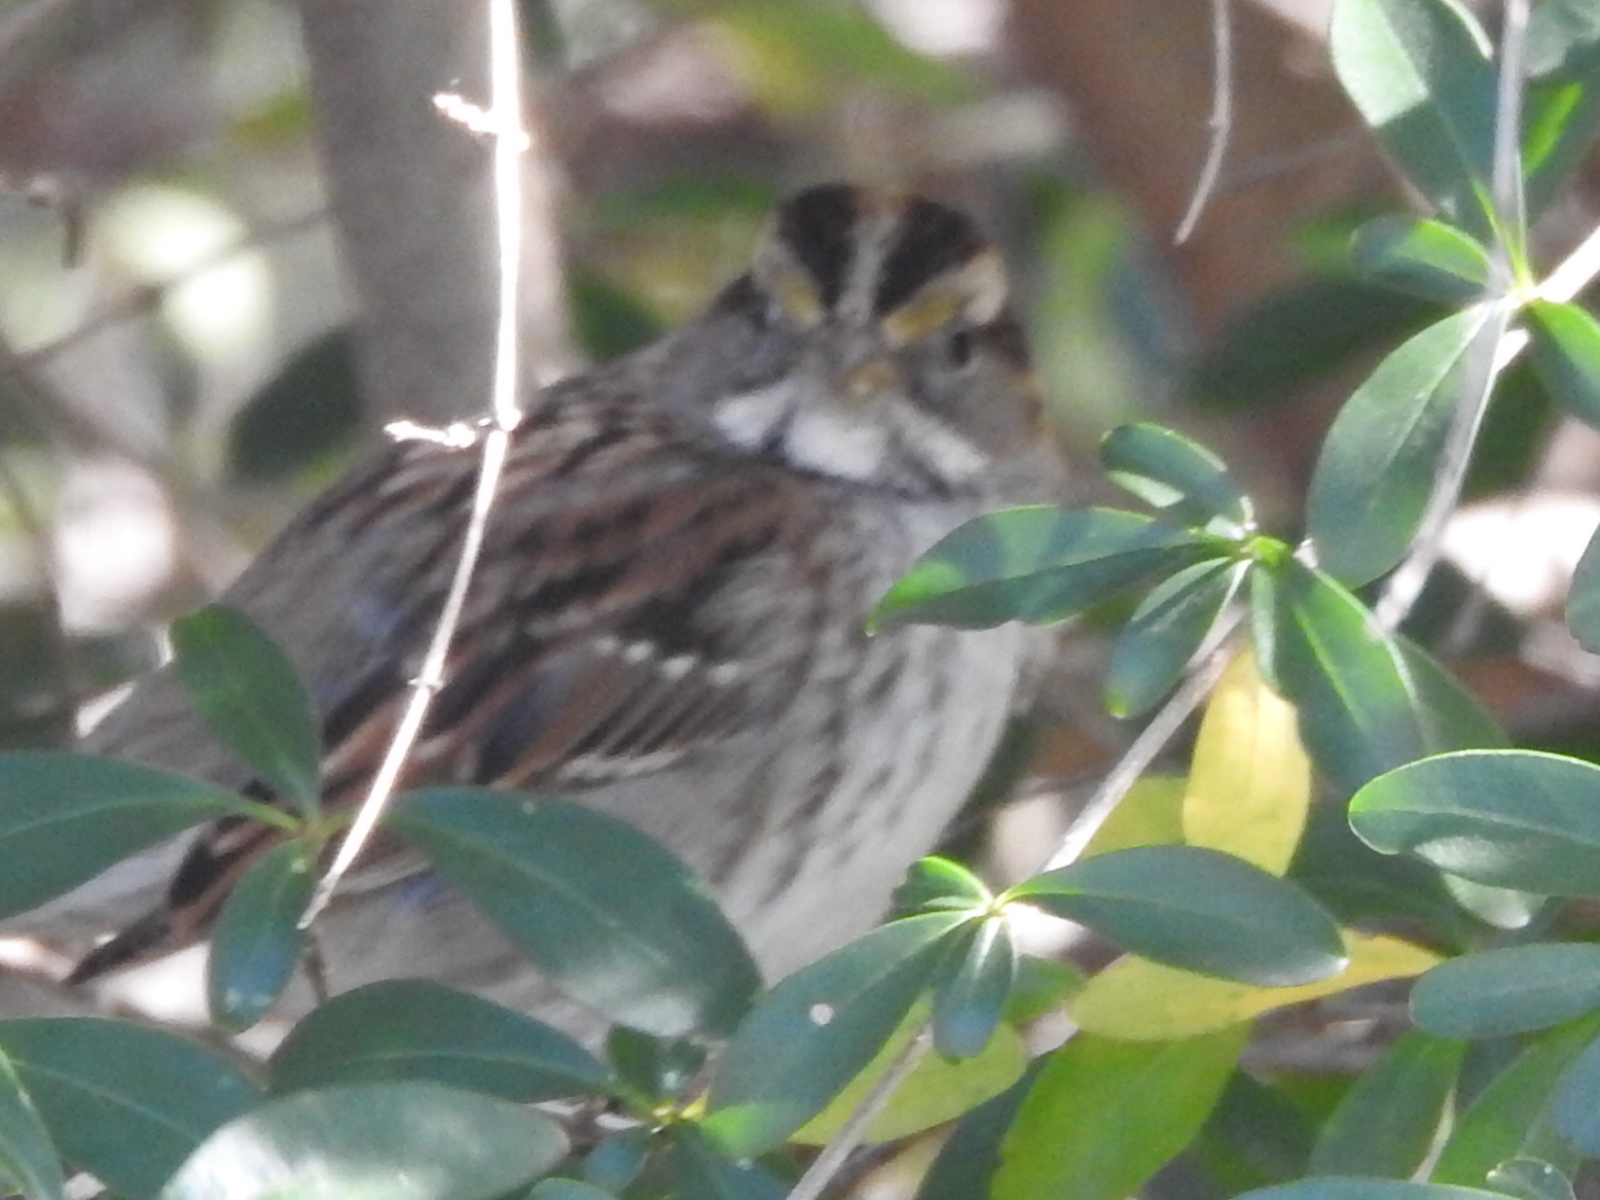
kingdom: Animalia
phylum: Chordata
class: Aves
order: Passeriformes
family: Passerellidae
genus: Zonotrichia
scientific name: Zonotrichia albicollis
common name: White-throated sparrow
